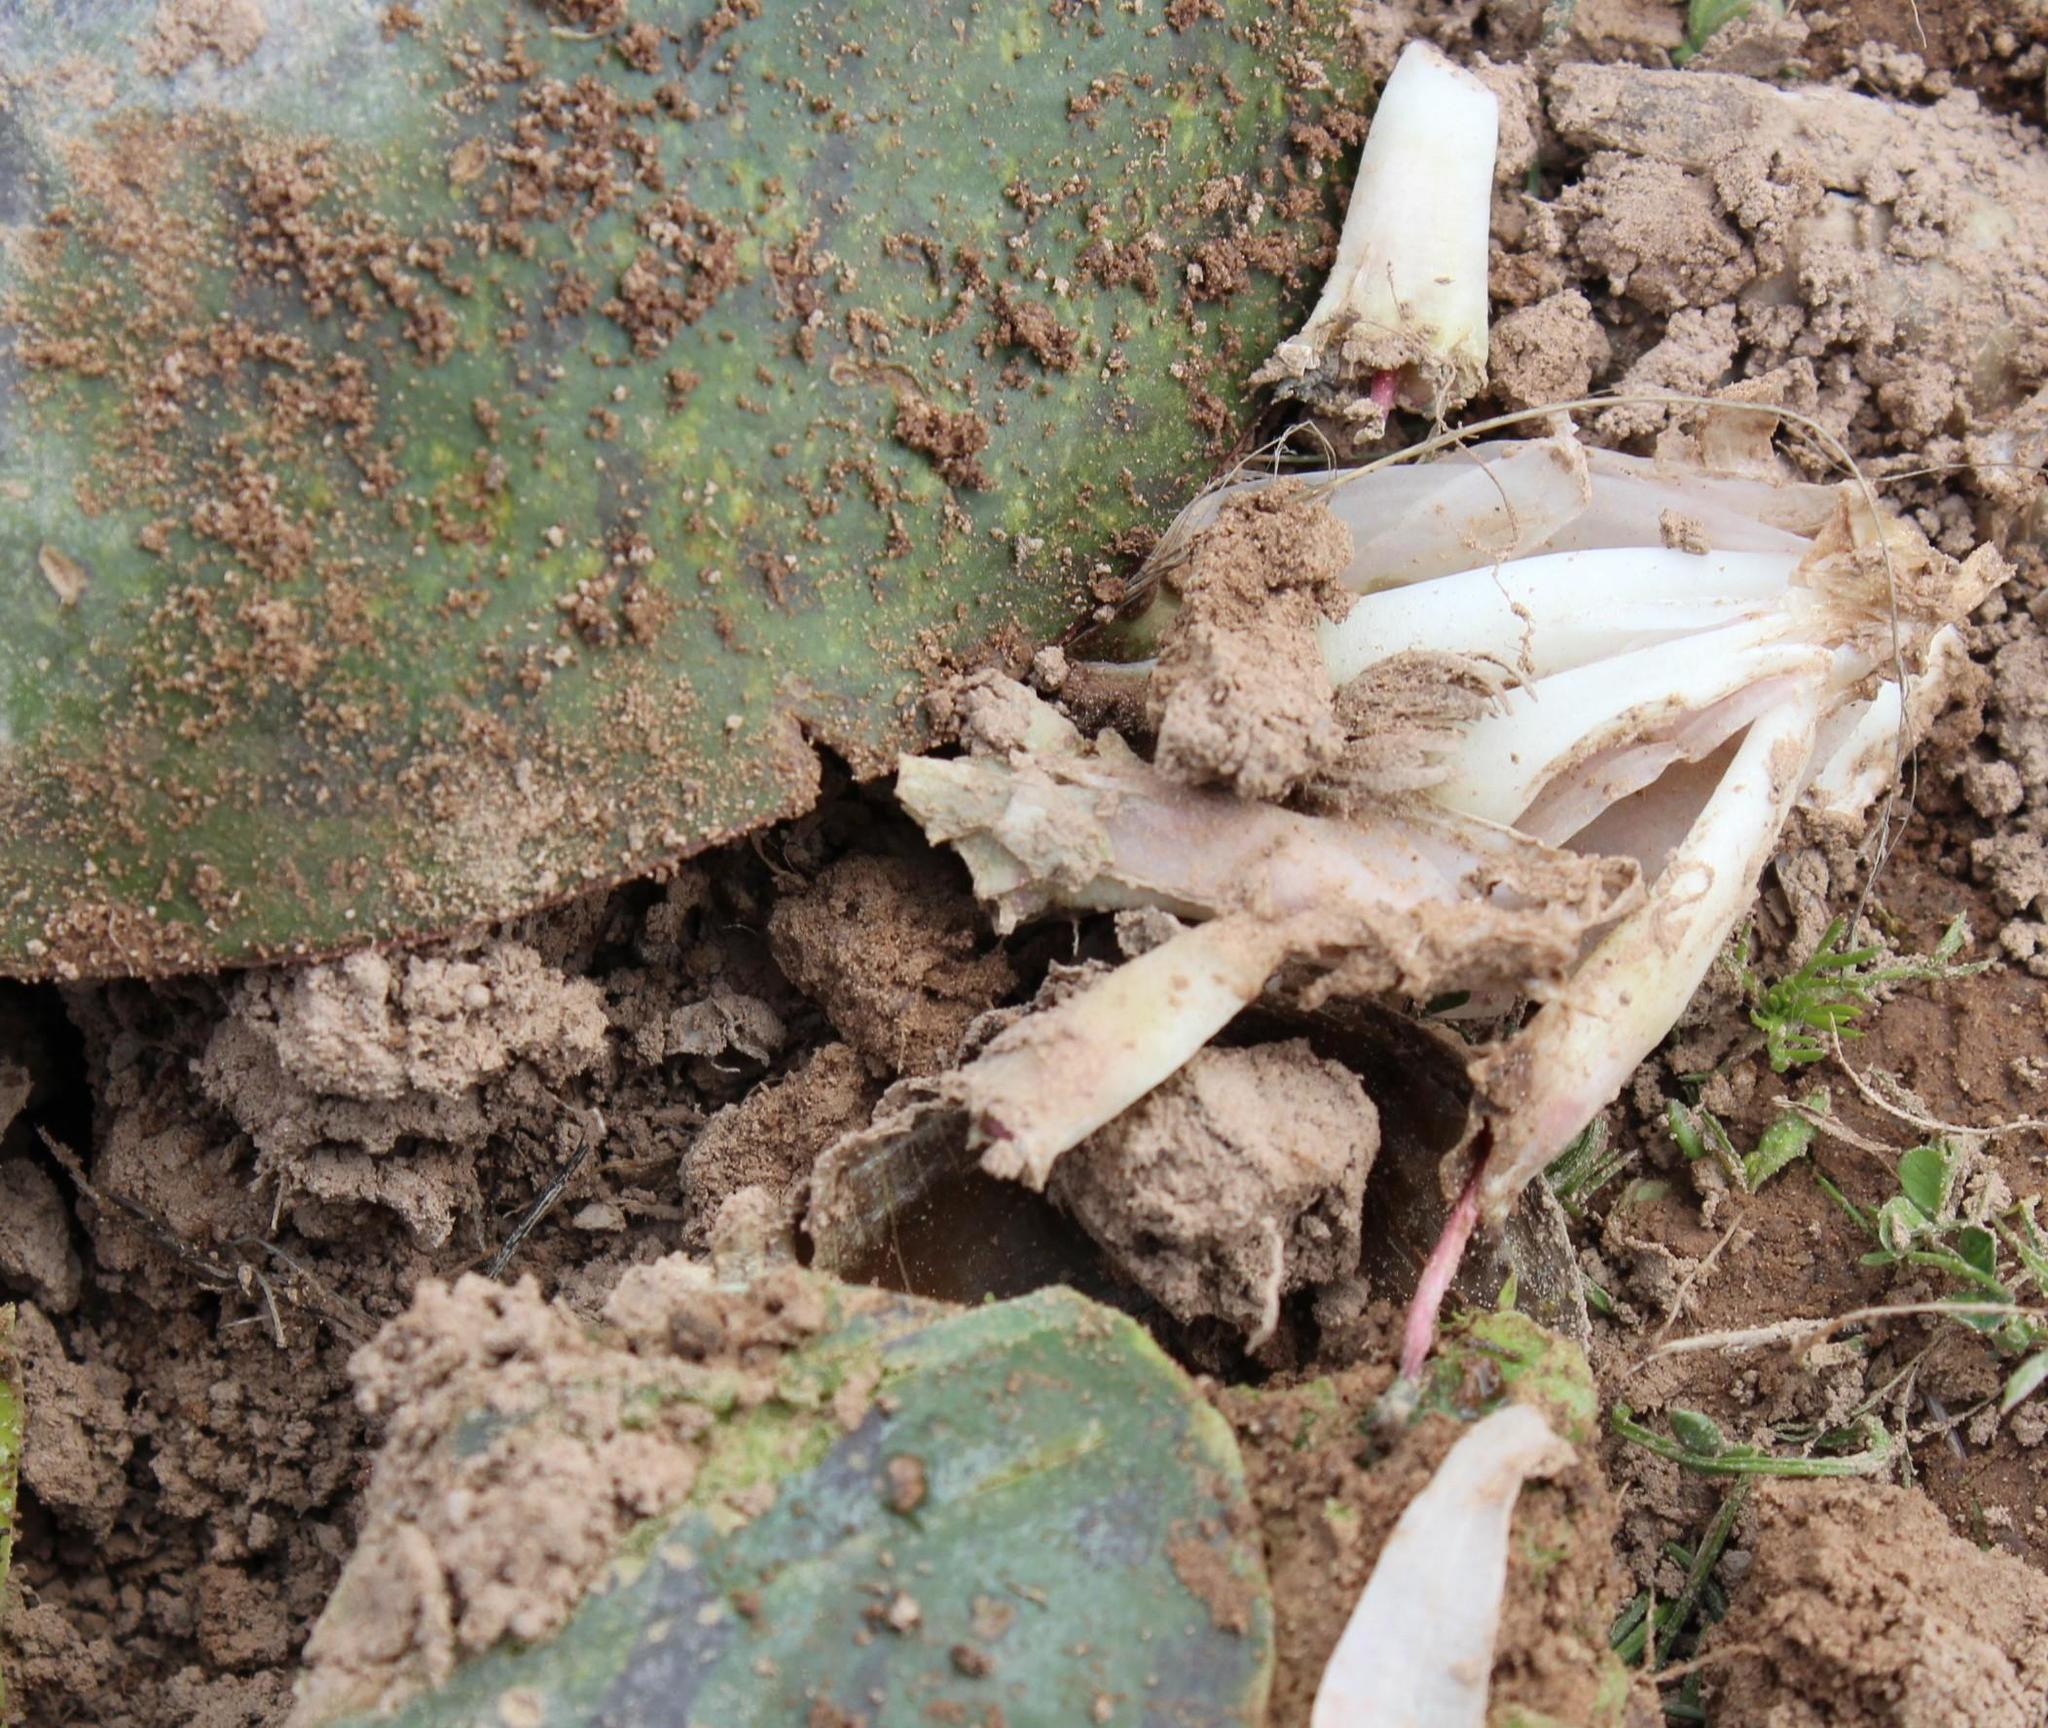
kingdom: Plantae
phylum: Tracheophyta
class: Liliopsida
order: Asparagales
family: Asparagaceae
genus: Massonia
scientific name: Massonia depressa
